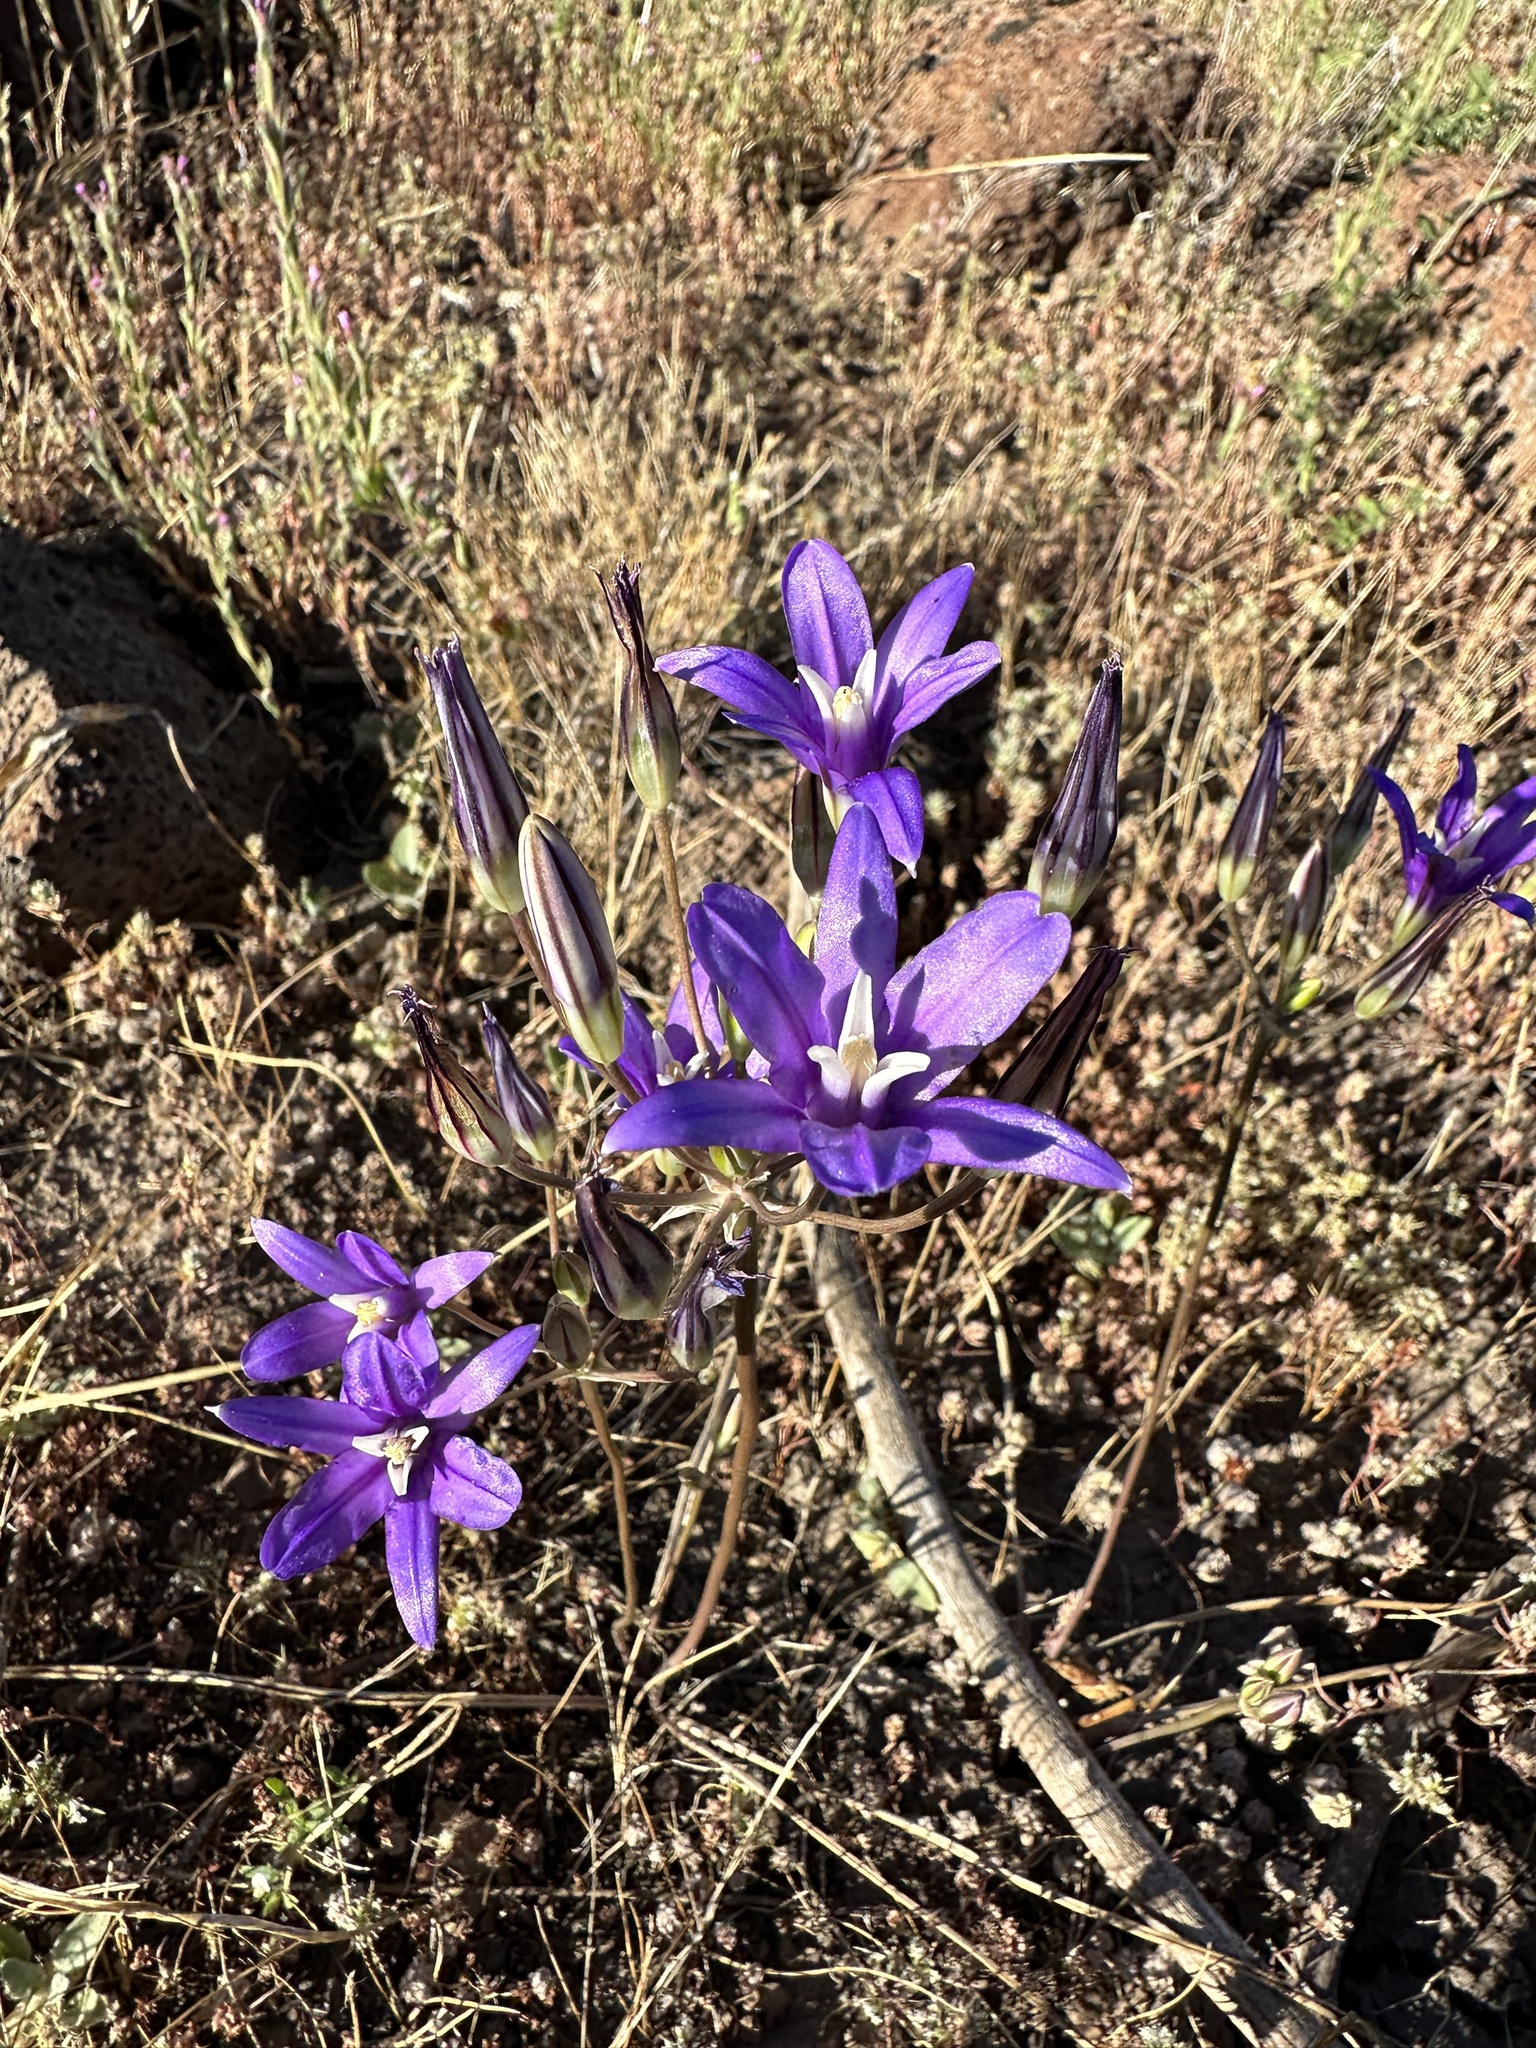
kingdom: Plantae
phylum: Tracheophyta
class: Liliopsida
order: Asparagales
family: Asparagaceae
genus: Brodiaea
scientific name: Brodiaea coronaria
